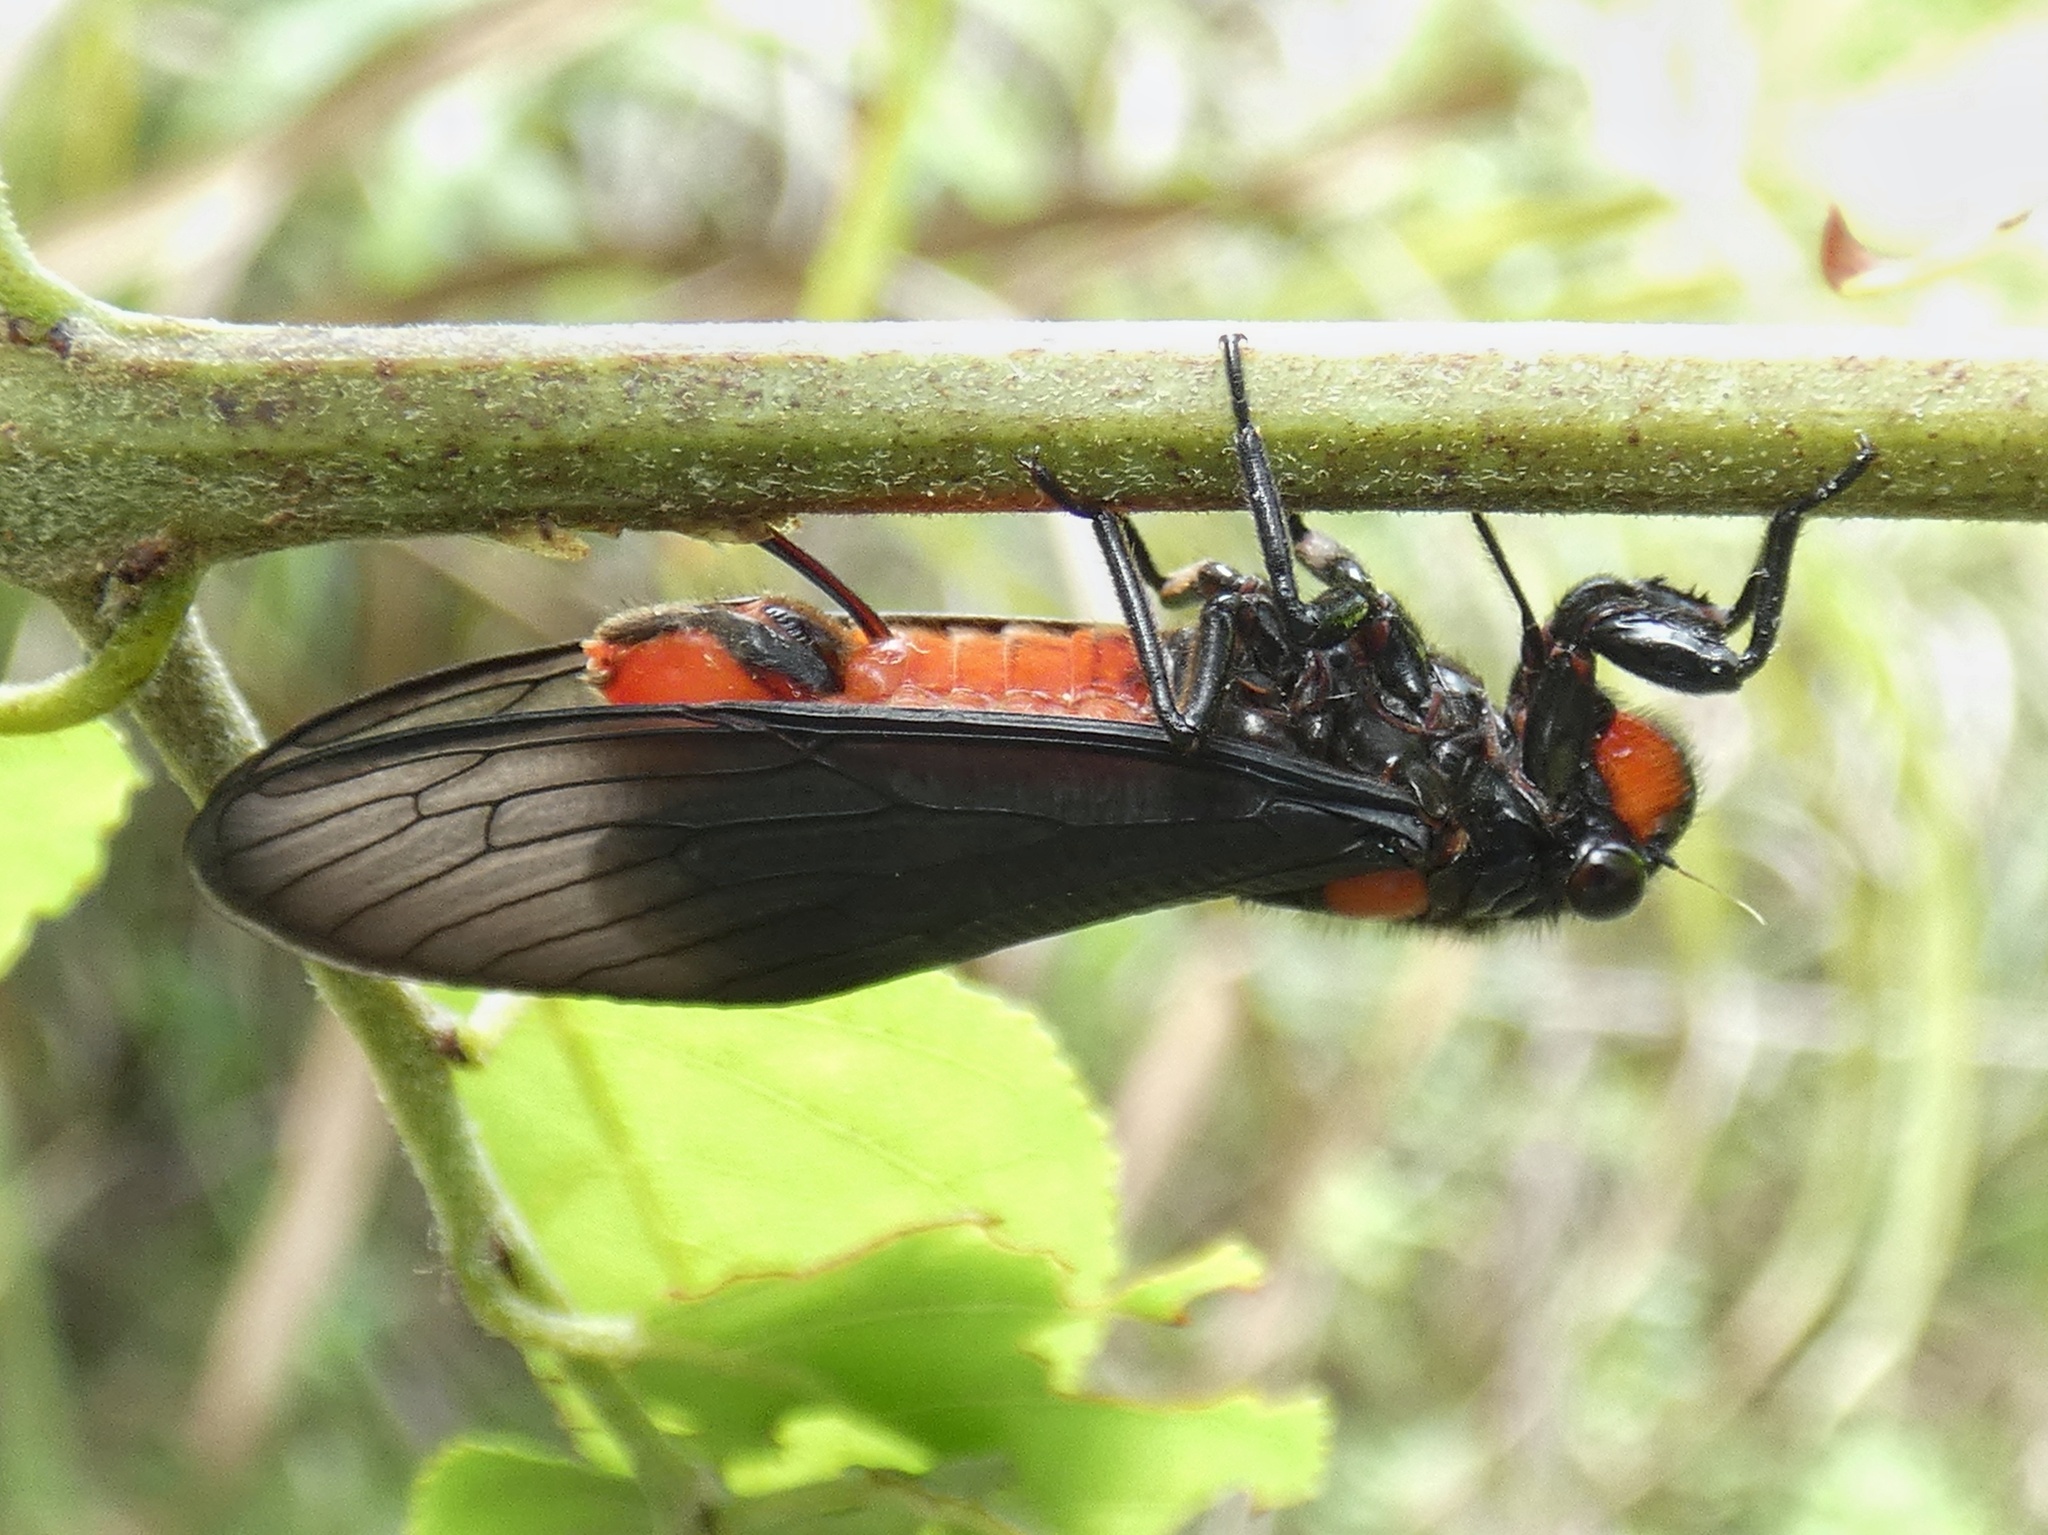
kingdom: Animalia
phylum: Arthropoda
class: Insecta
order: Hemiptera
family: Cicadidae
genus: Huechys
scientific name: Huechys sanguinea
